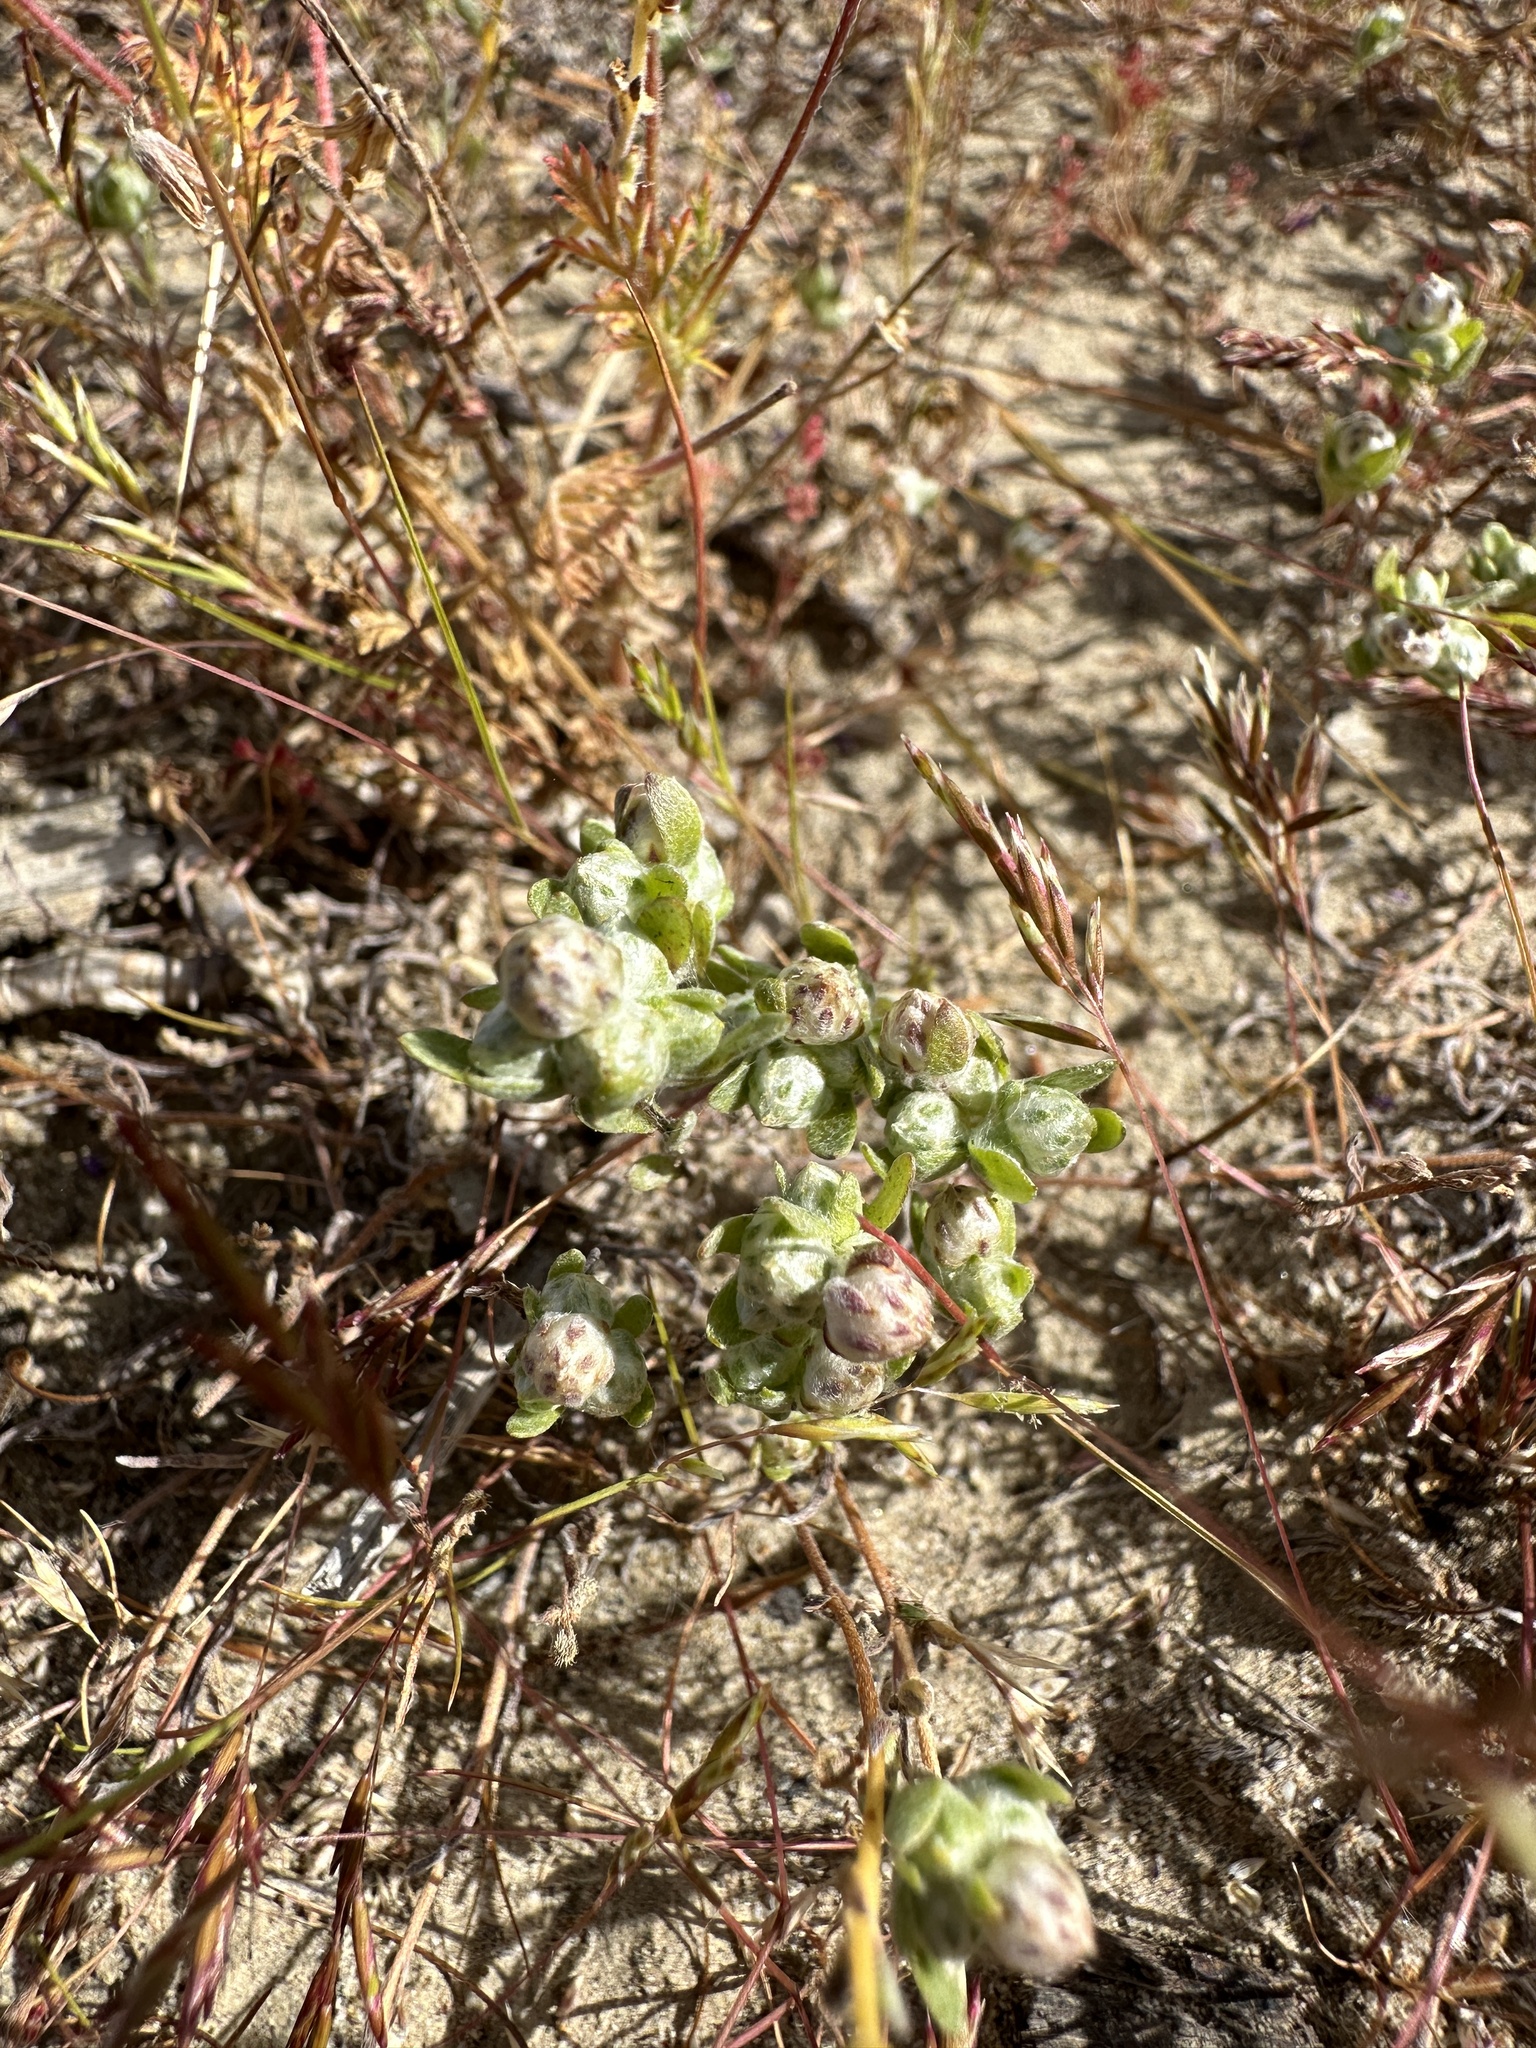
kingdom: Plantae
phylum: Tracheophyta
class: Magnoliopsida
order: Asterales
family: Asteraceae
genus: Stylocline
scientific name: Stylocline gnaphaloides
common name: Everlasting nest-straw
